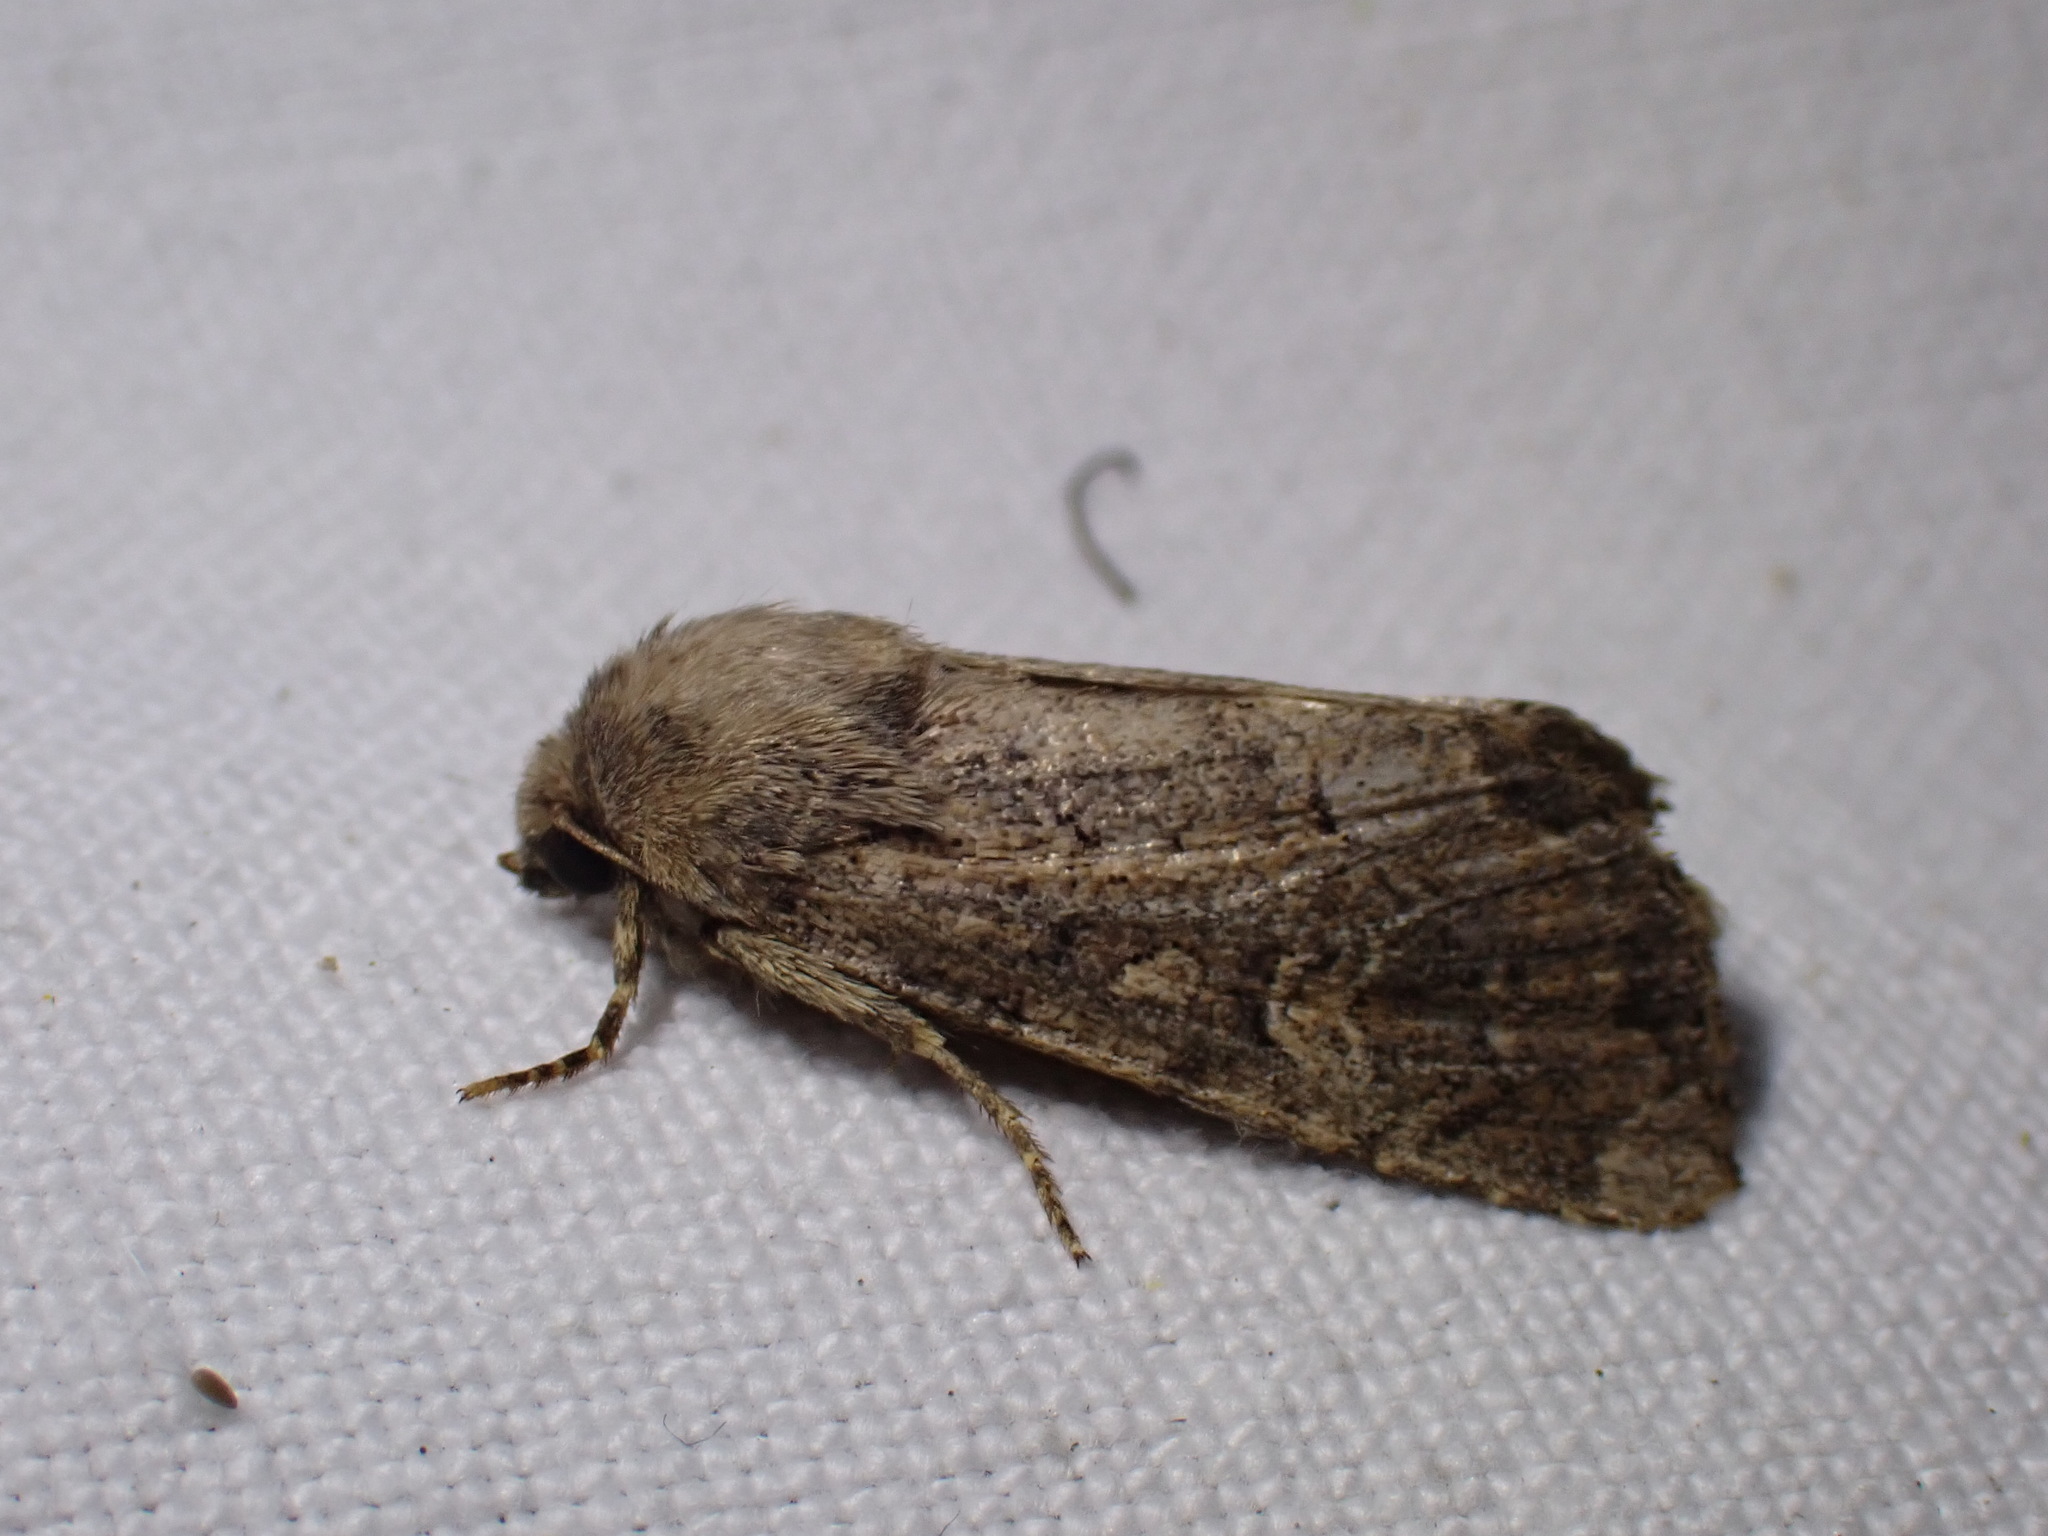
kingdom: Animalia
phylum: Arthropoda
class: Insecta
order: Lepidoptera
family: Noctuidae
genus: Luperina
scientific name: Luperina testacea
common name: Flounced rustic
